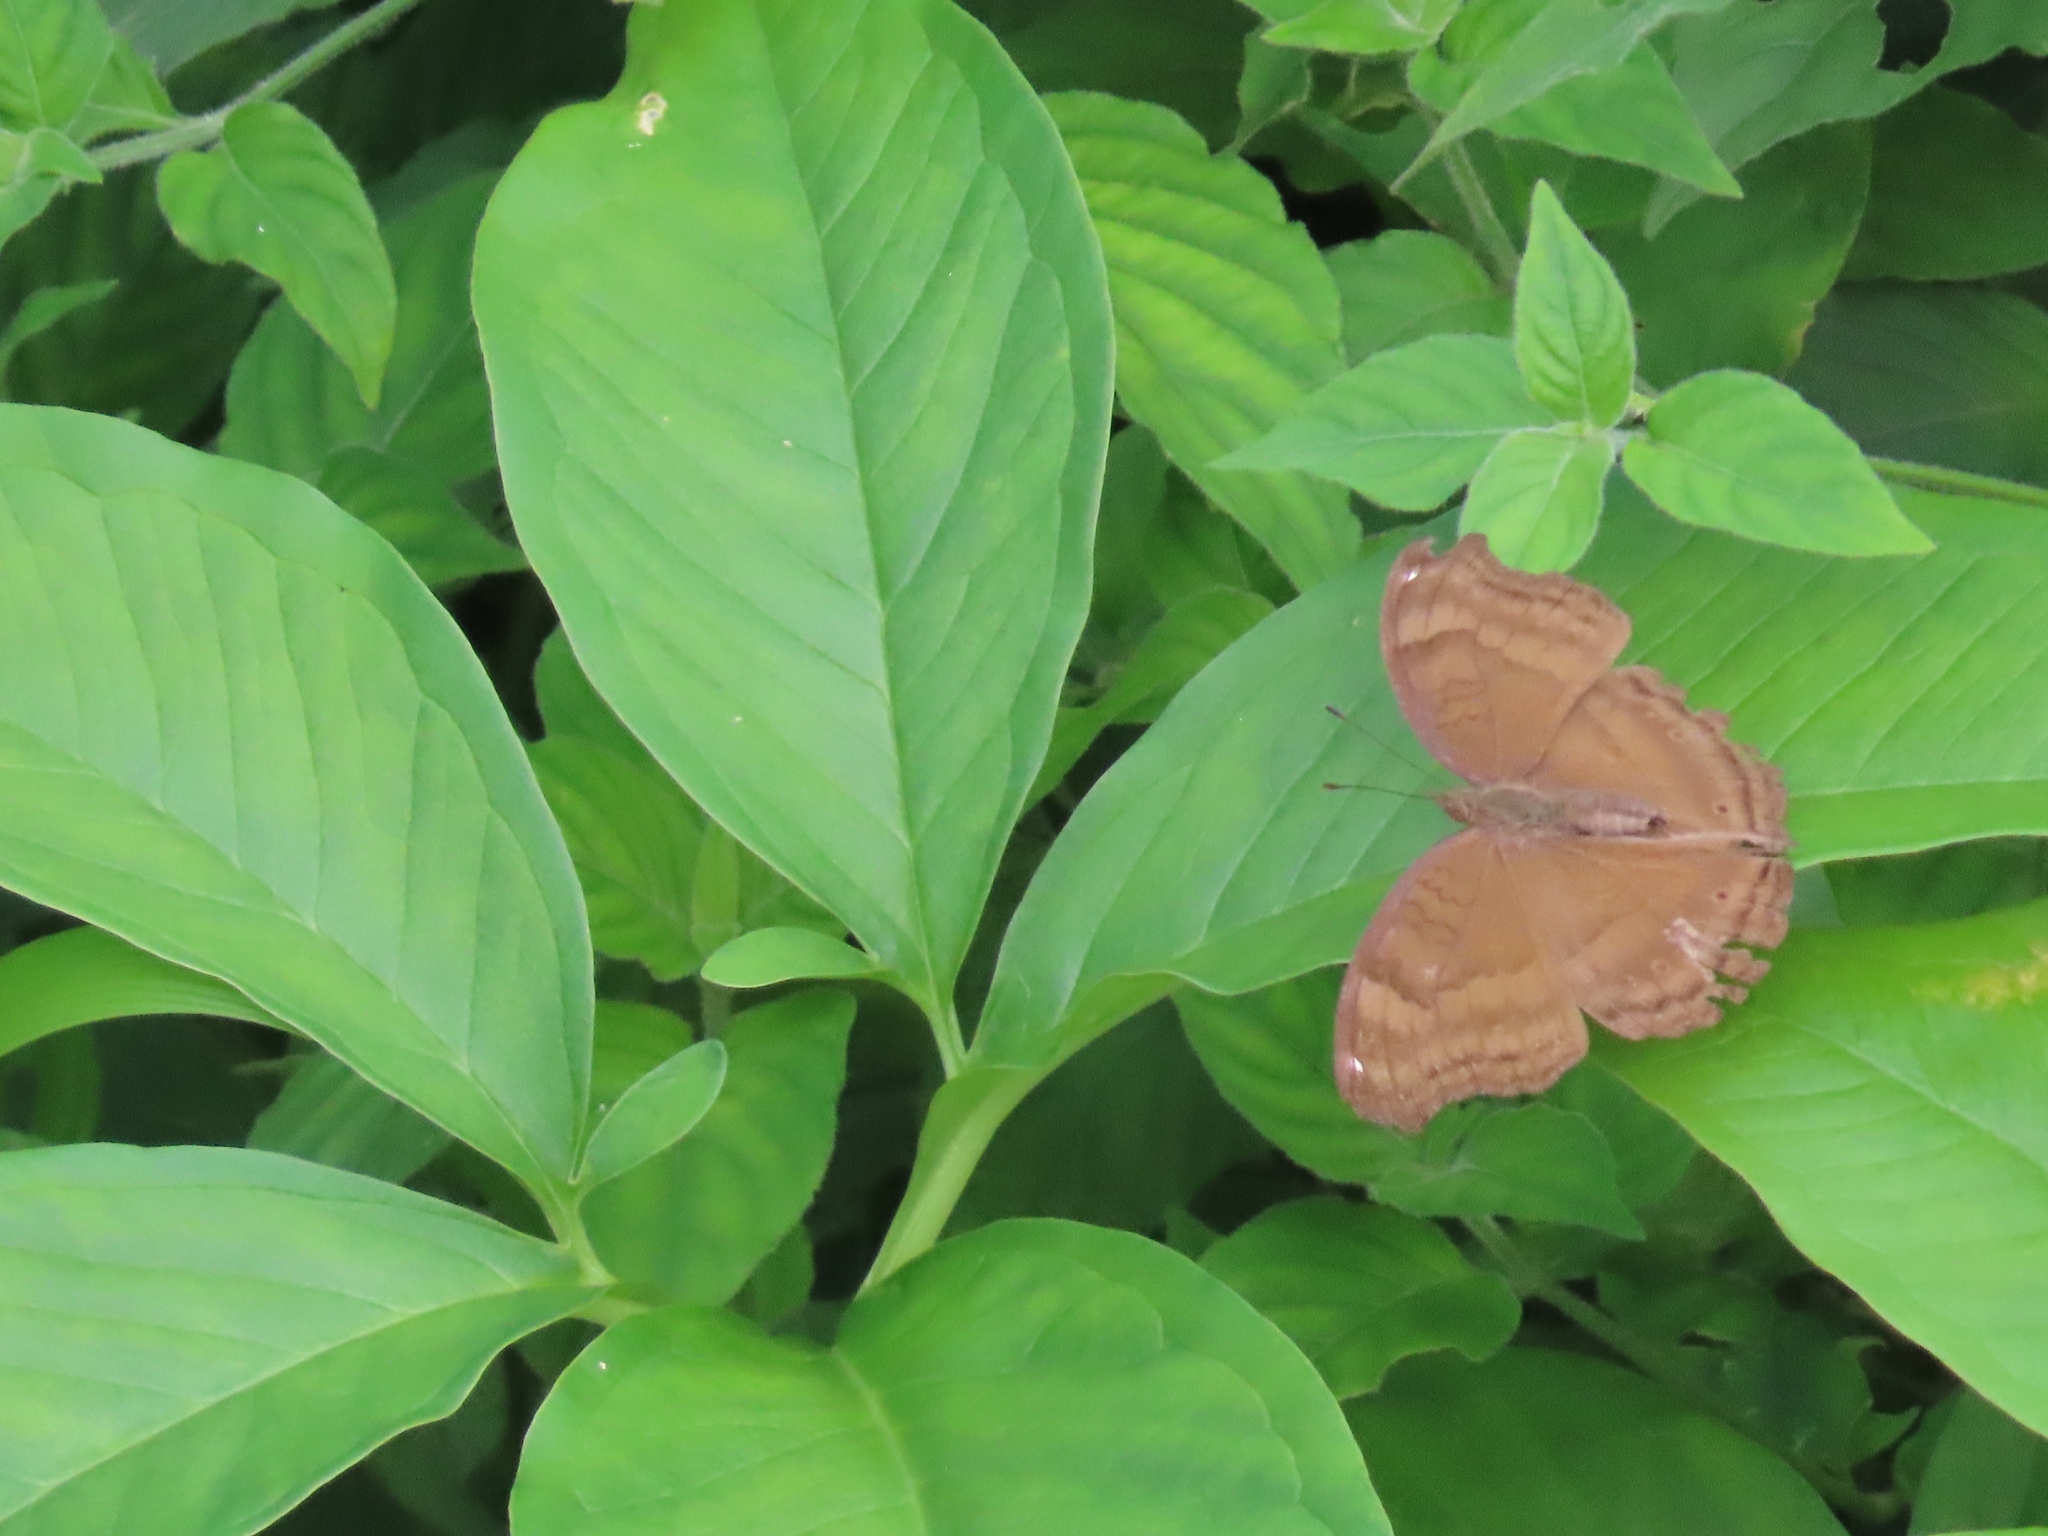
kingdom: Animalia
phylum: Arthropoda
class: Insecta
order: Lepidoptera
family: Nymphalidae
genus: Junonia
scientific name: Junonia iphita
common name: Chocolate pansy
